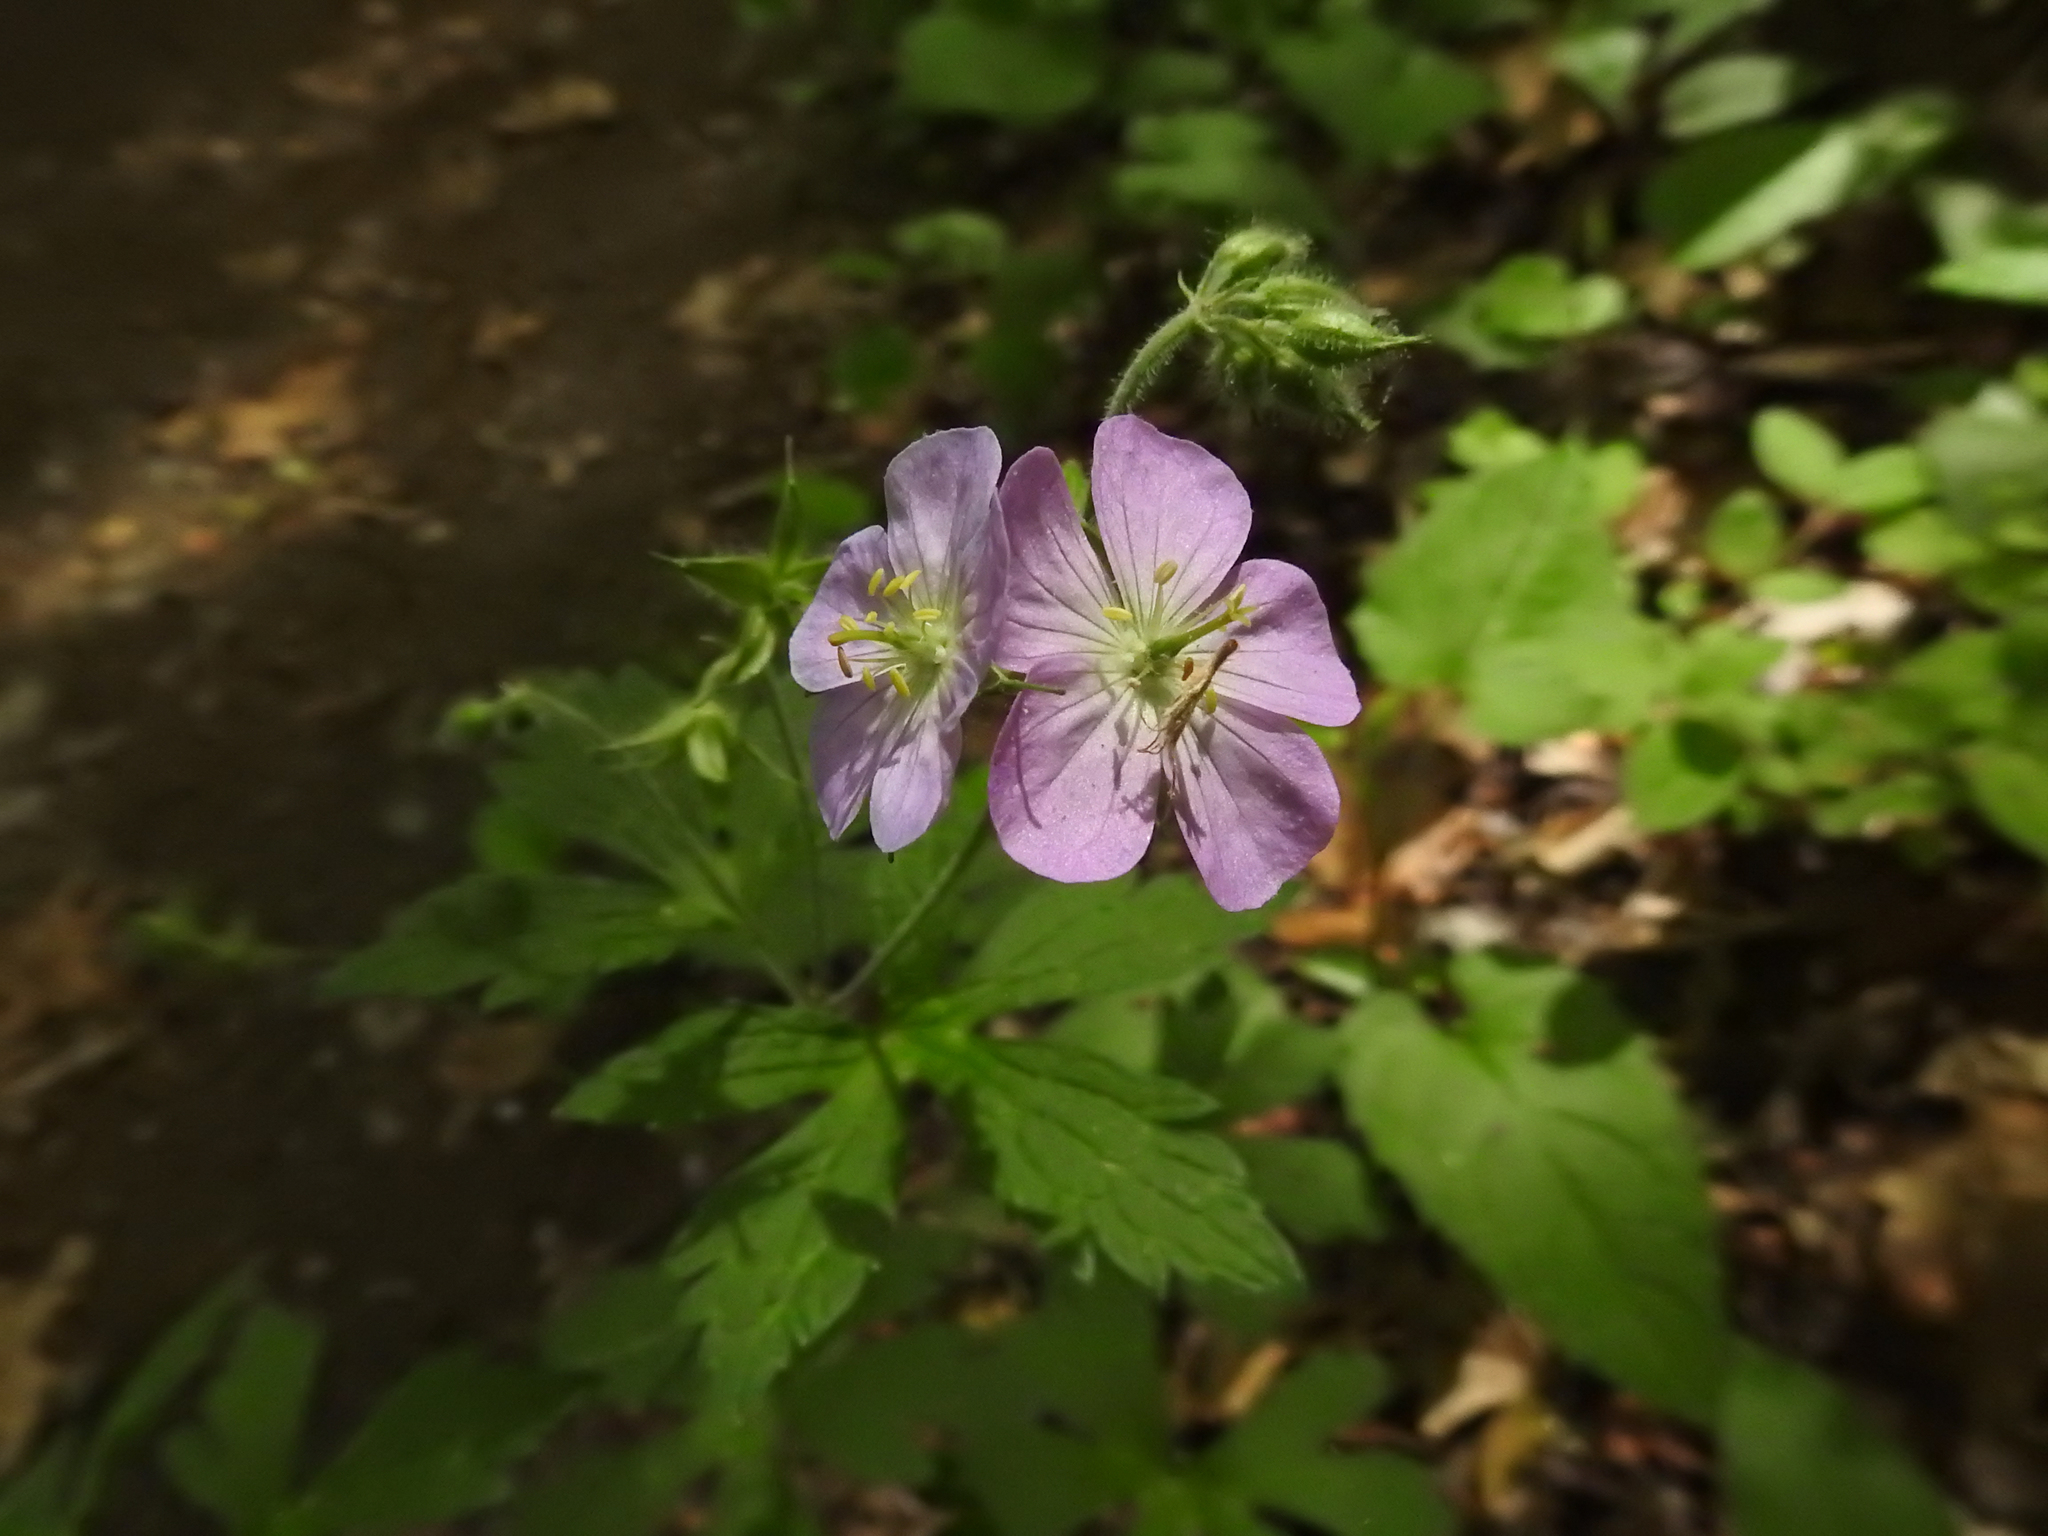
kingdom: Plantae
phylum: Tracheophyta
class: Magnoliopsida
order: Geraniales
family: Geraniaceae
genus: Geranium
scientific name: Geranium maculatum
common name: Spotted geranium
